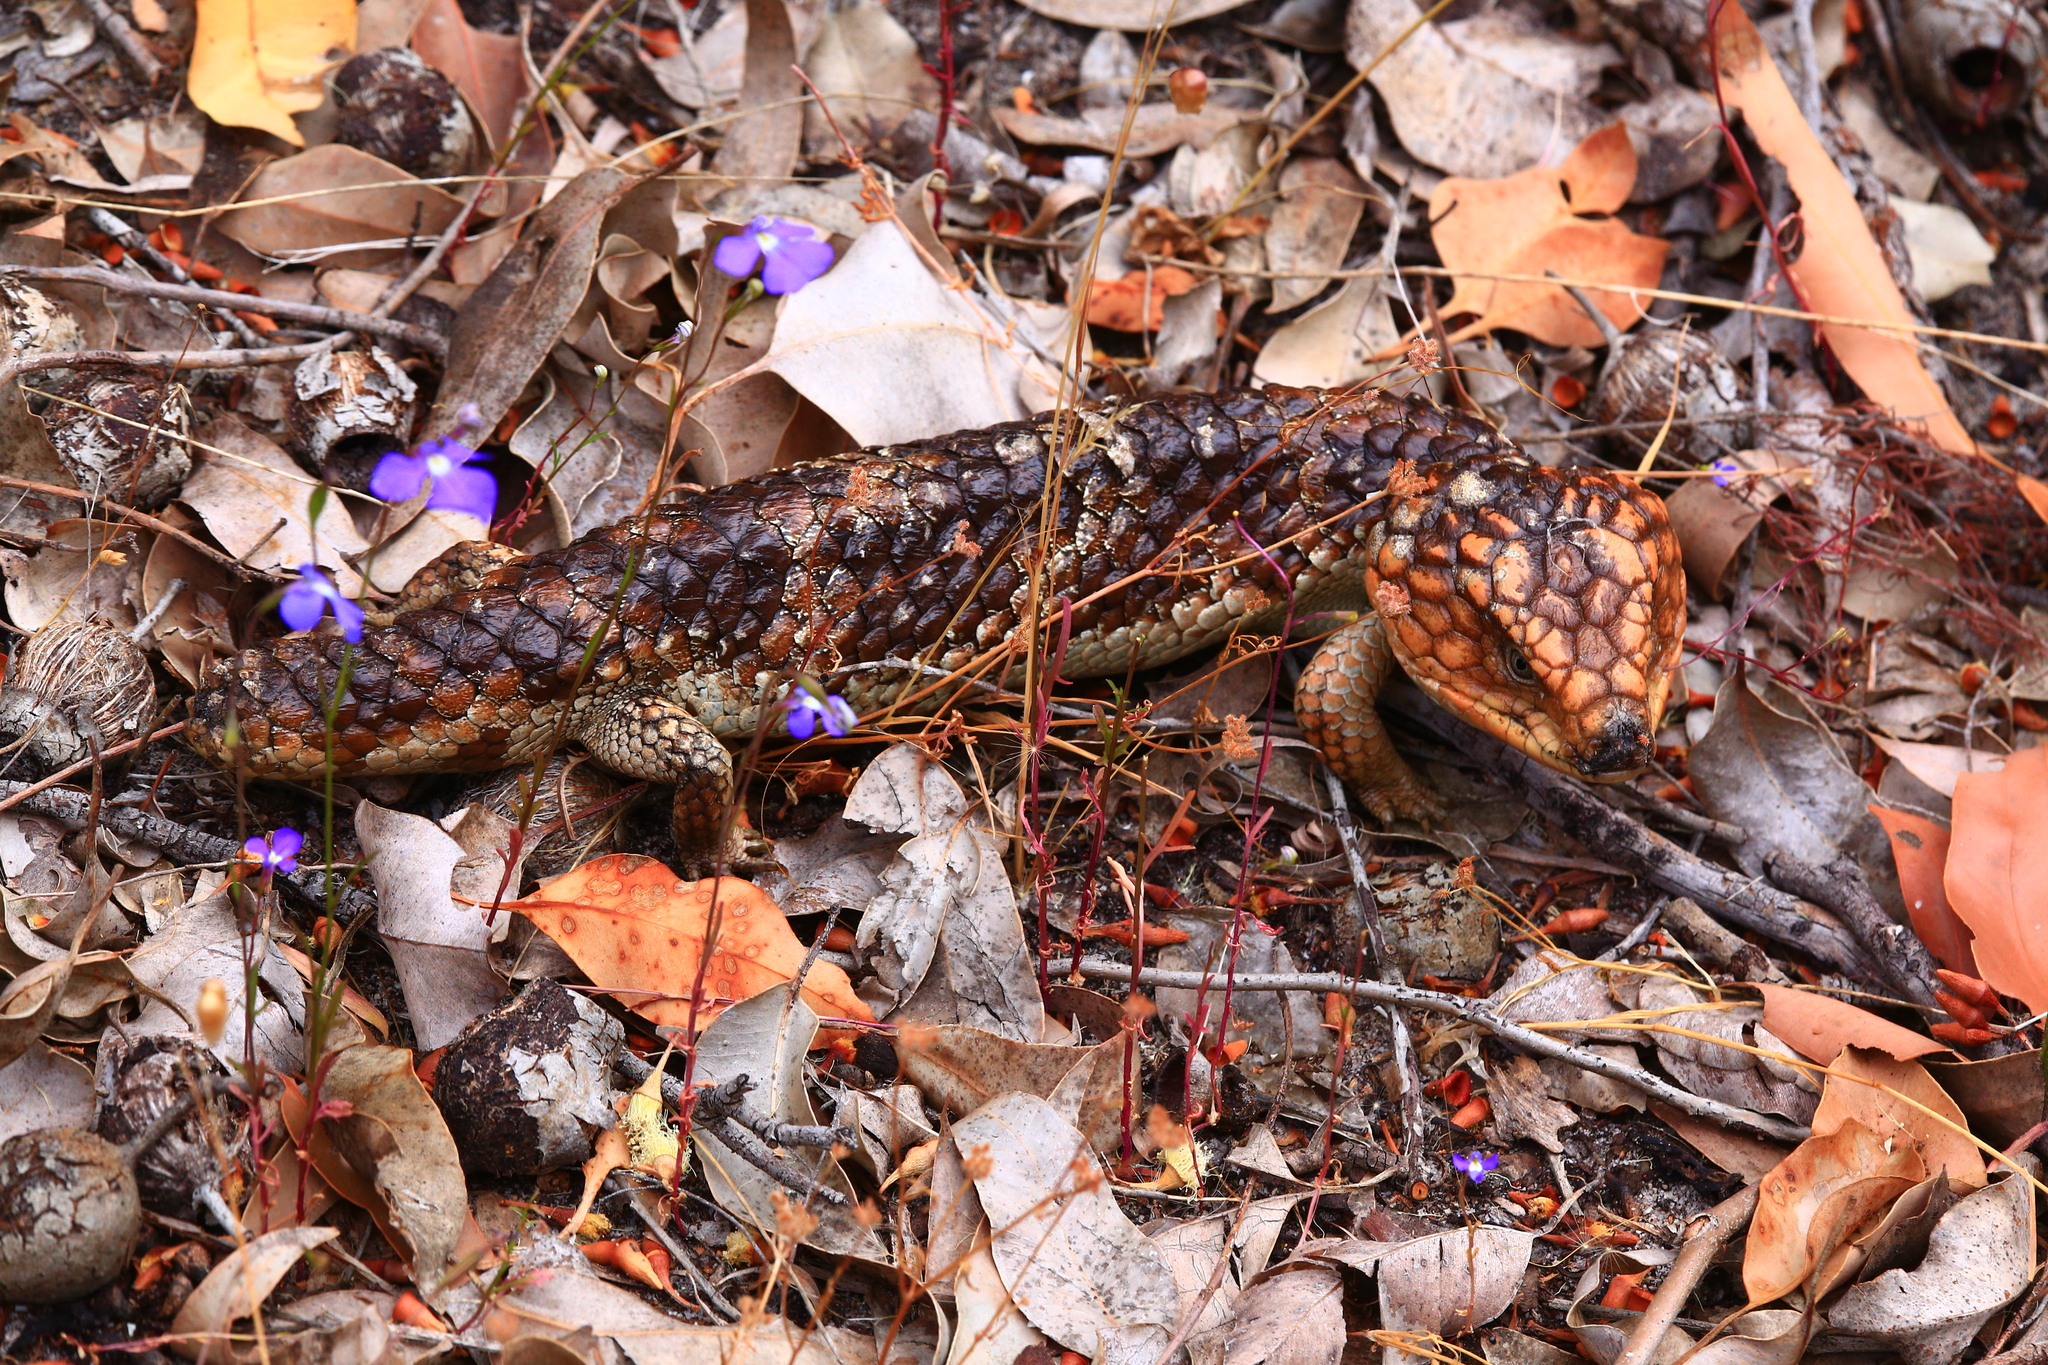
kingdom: Animalia
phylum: Chordata
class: Squamata
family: Scincidae
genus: Tiliqua
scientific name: Tiliqua rugosa
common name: Pinecone lizard
